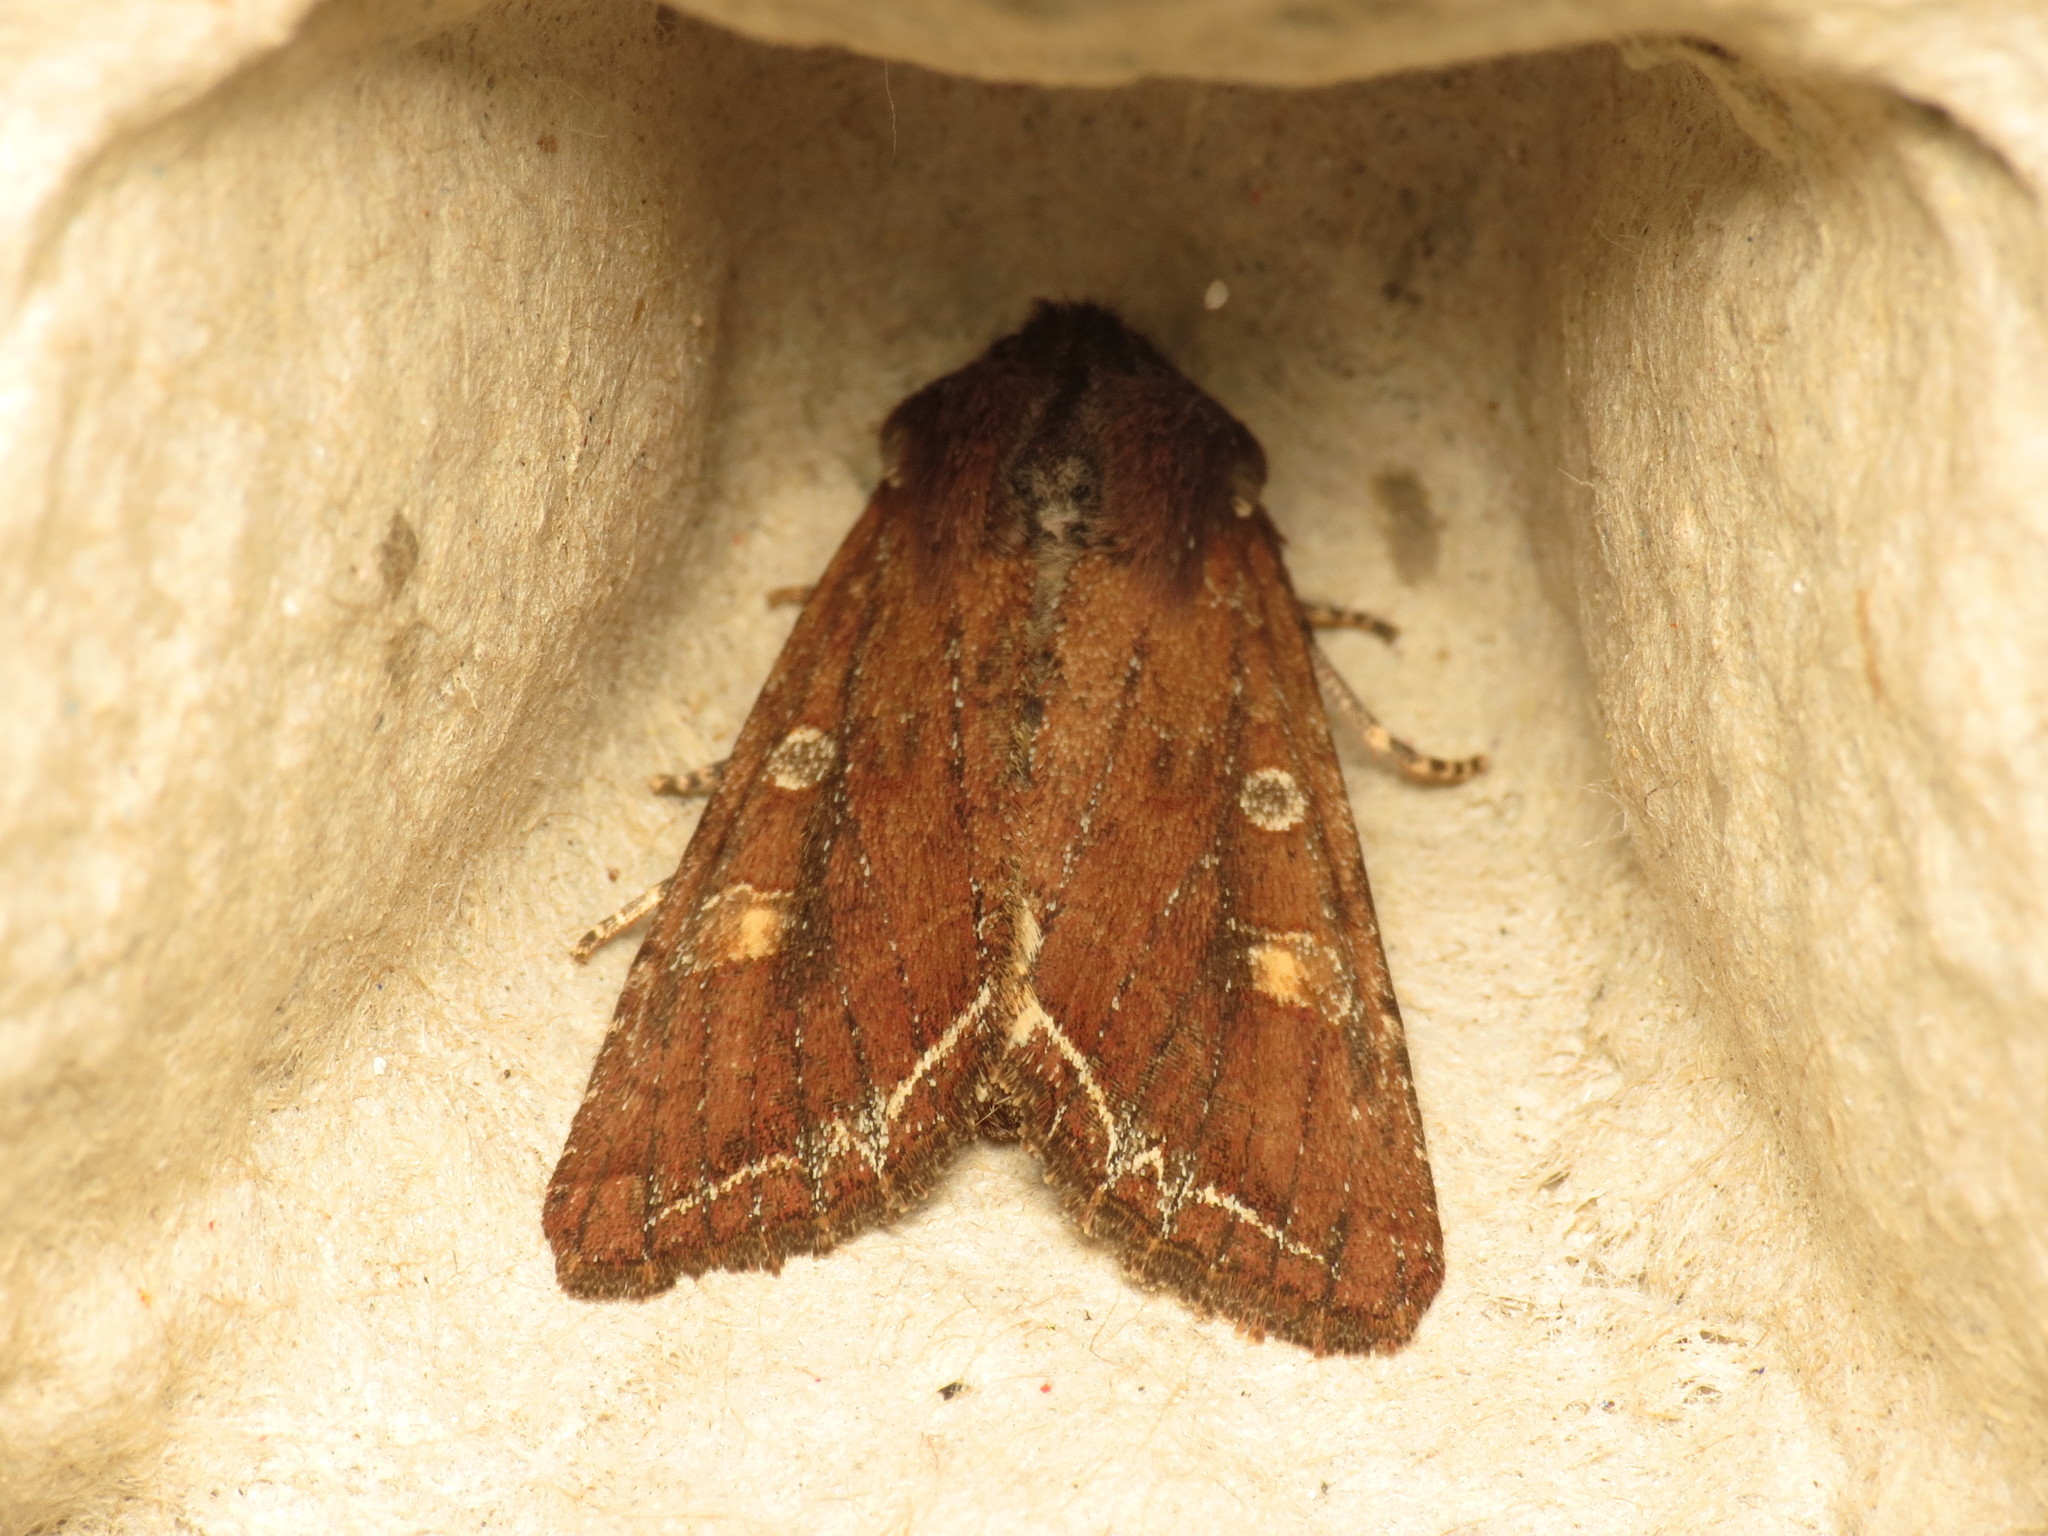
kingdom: Animalia
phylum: Arthropoda
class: Insecta
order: Lepidoptera
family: Noctuidae
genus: Lacanobia
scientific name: Lacanobia oleracea
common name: Bright-line brown-eye
